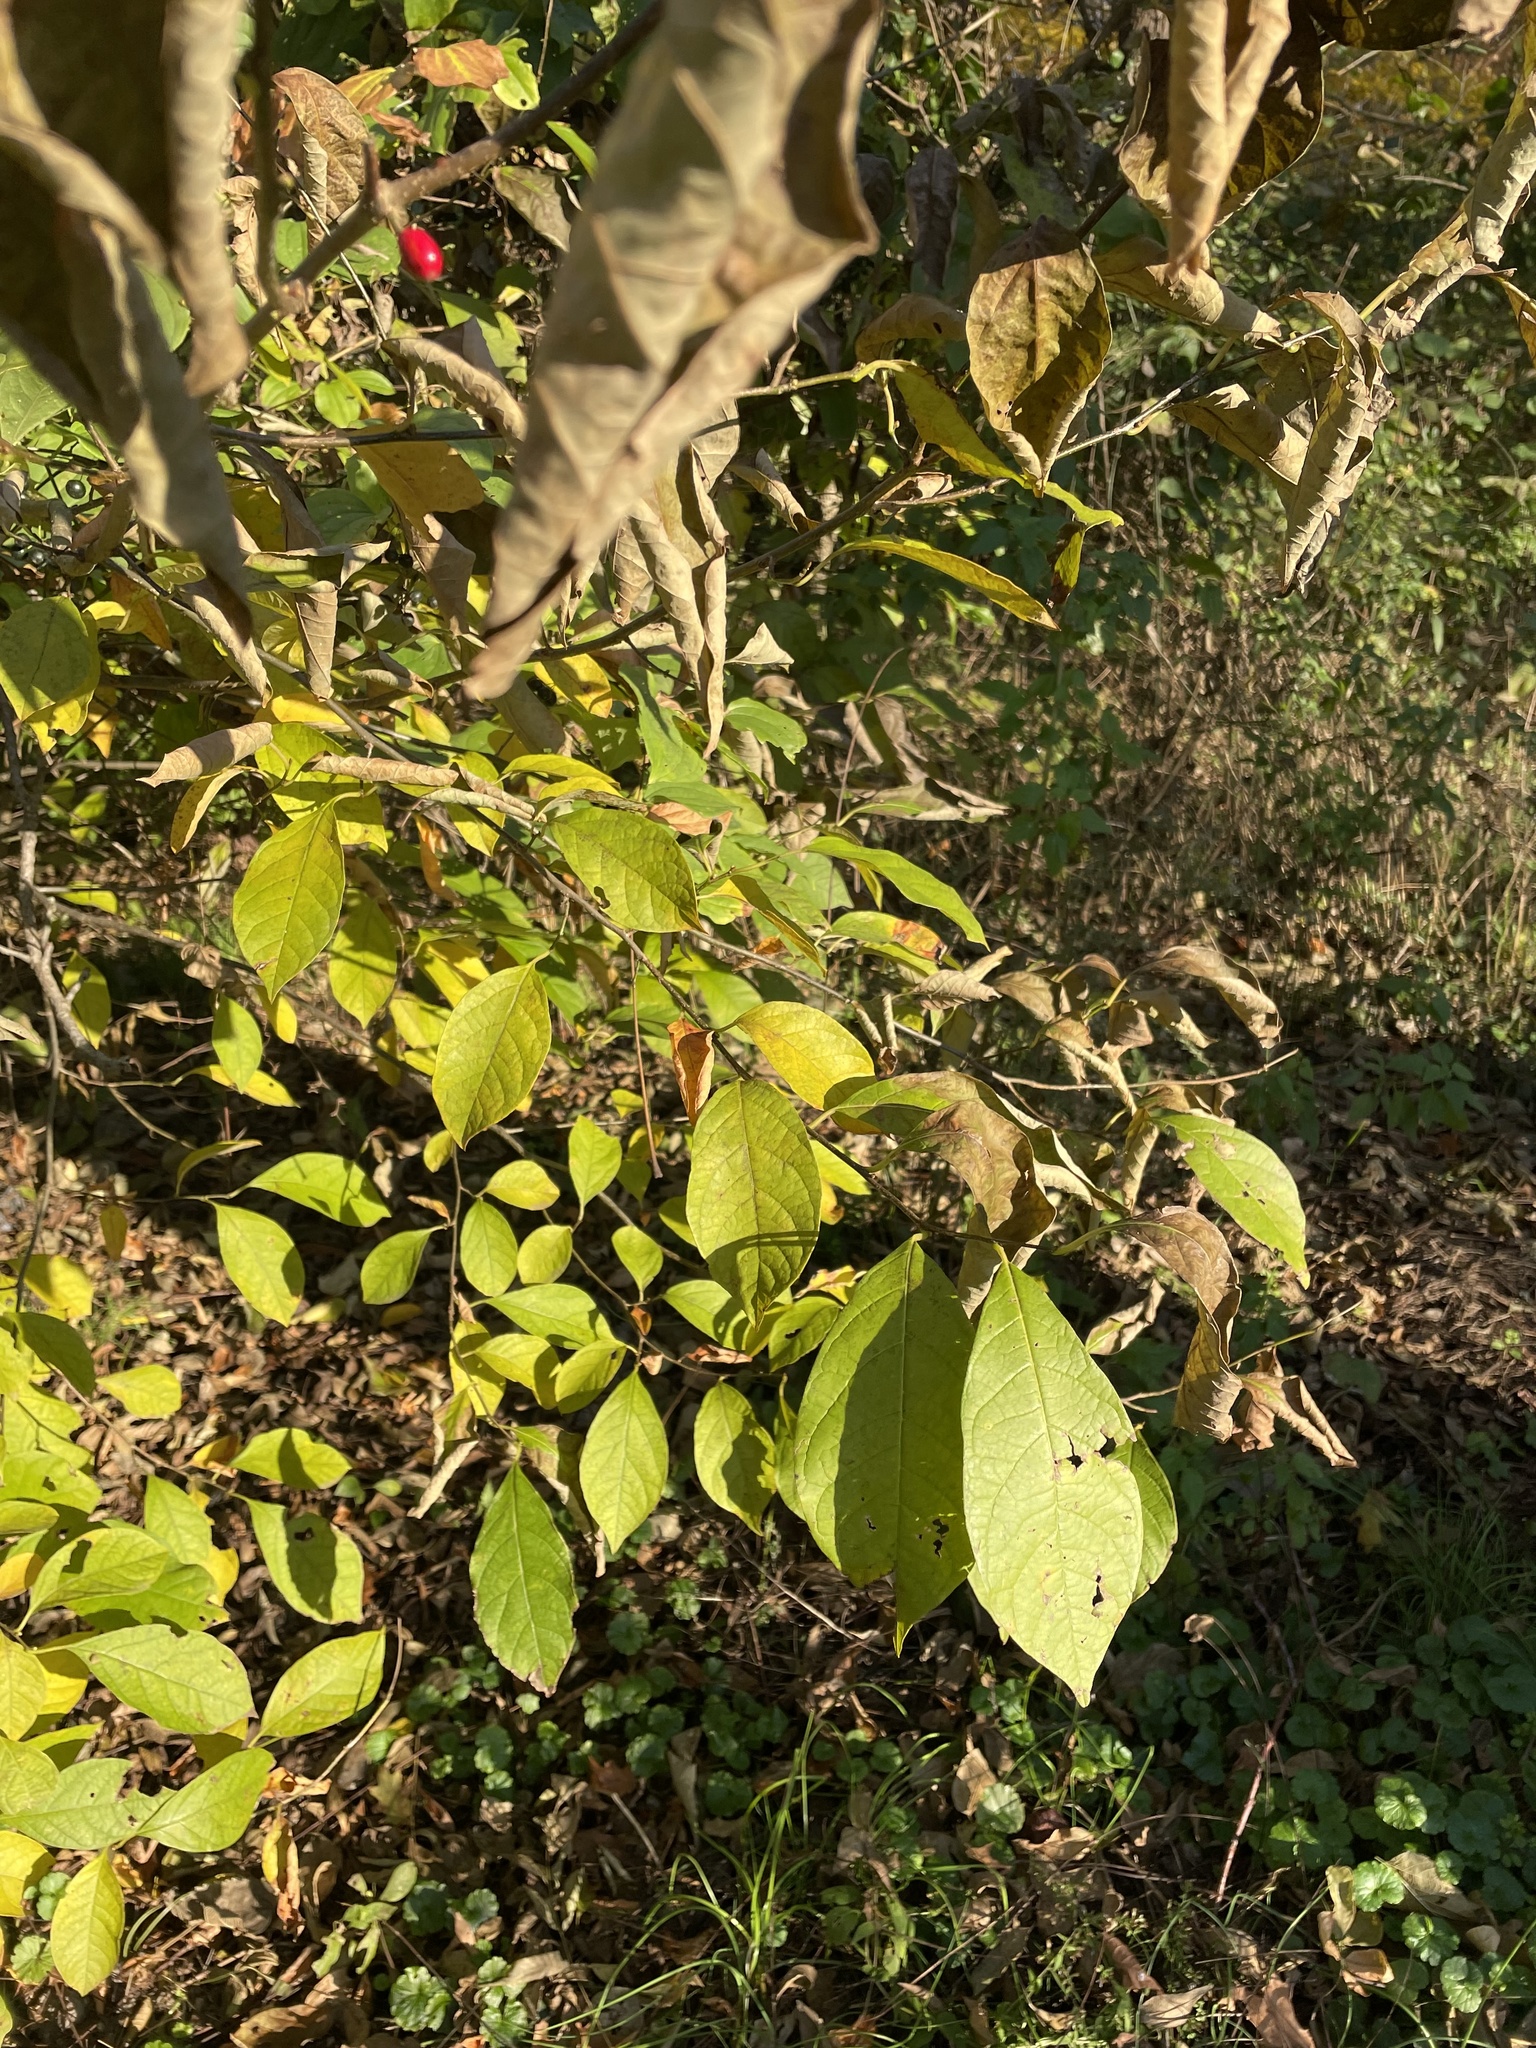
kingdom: Plantae
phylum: Tracheophyta
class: Magnoliopsida
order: Laurales
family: Lauraceae
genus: Lindera
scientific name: Lindera benzoin
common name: Spicebush
